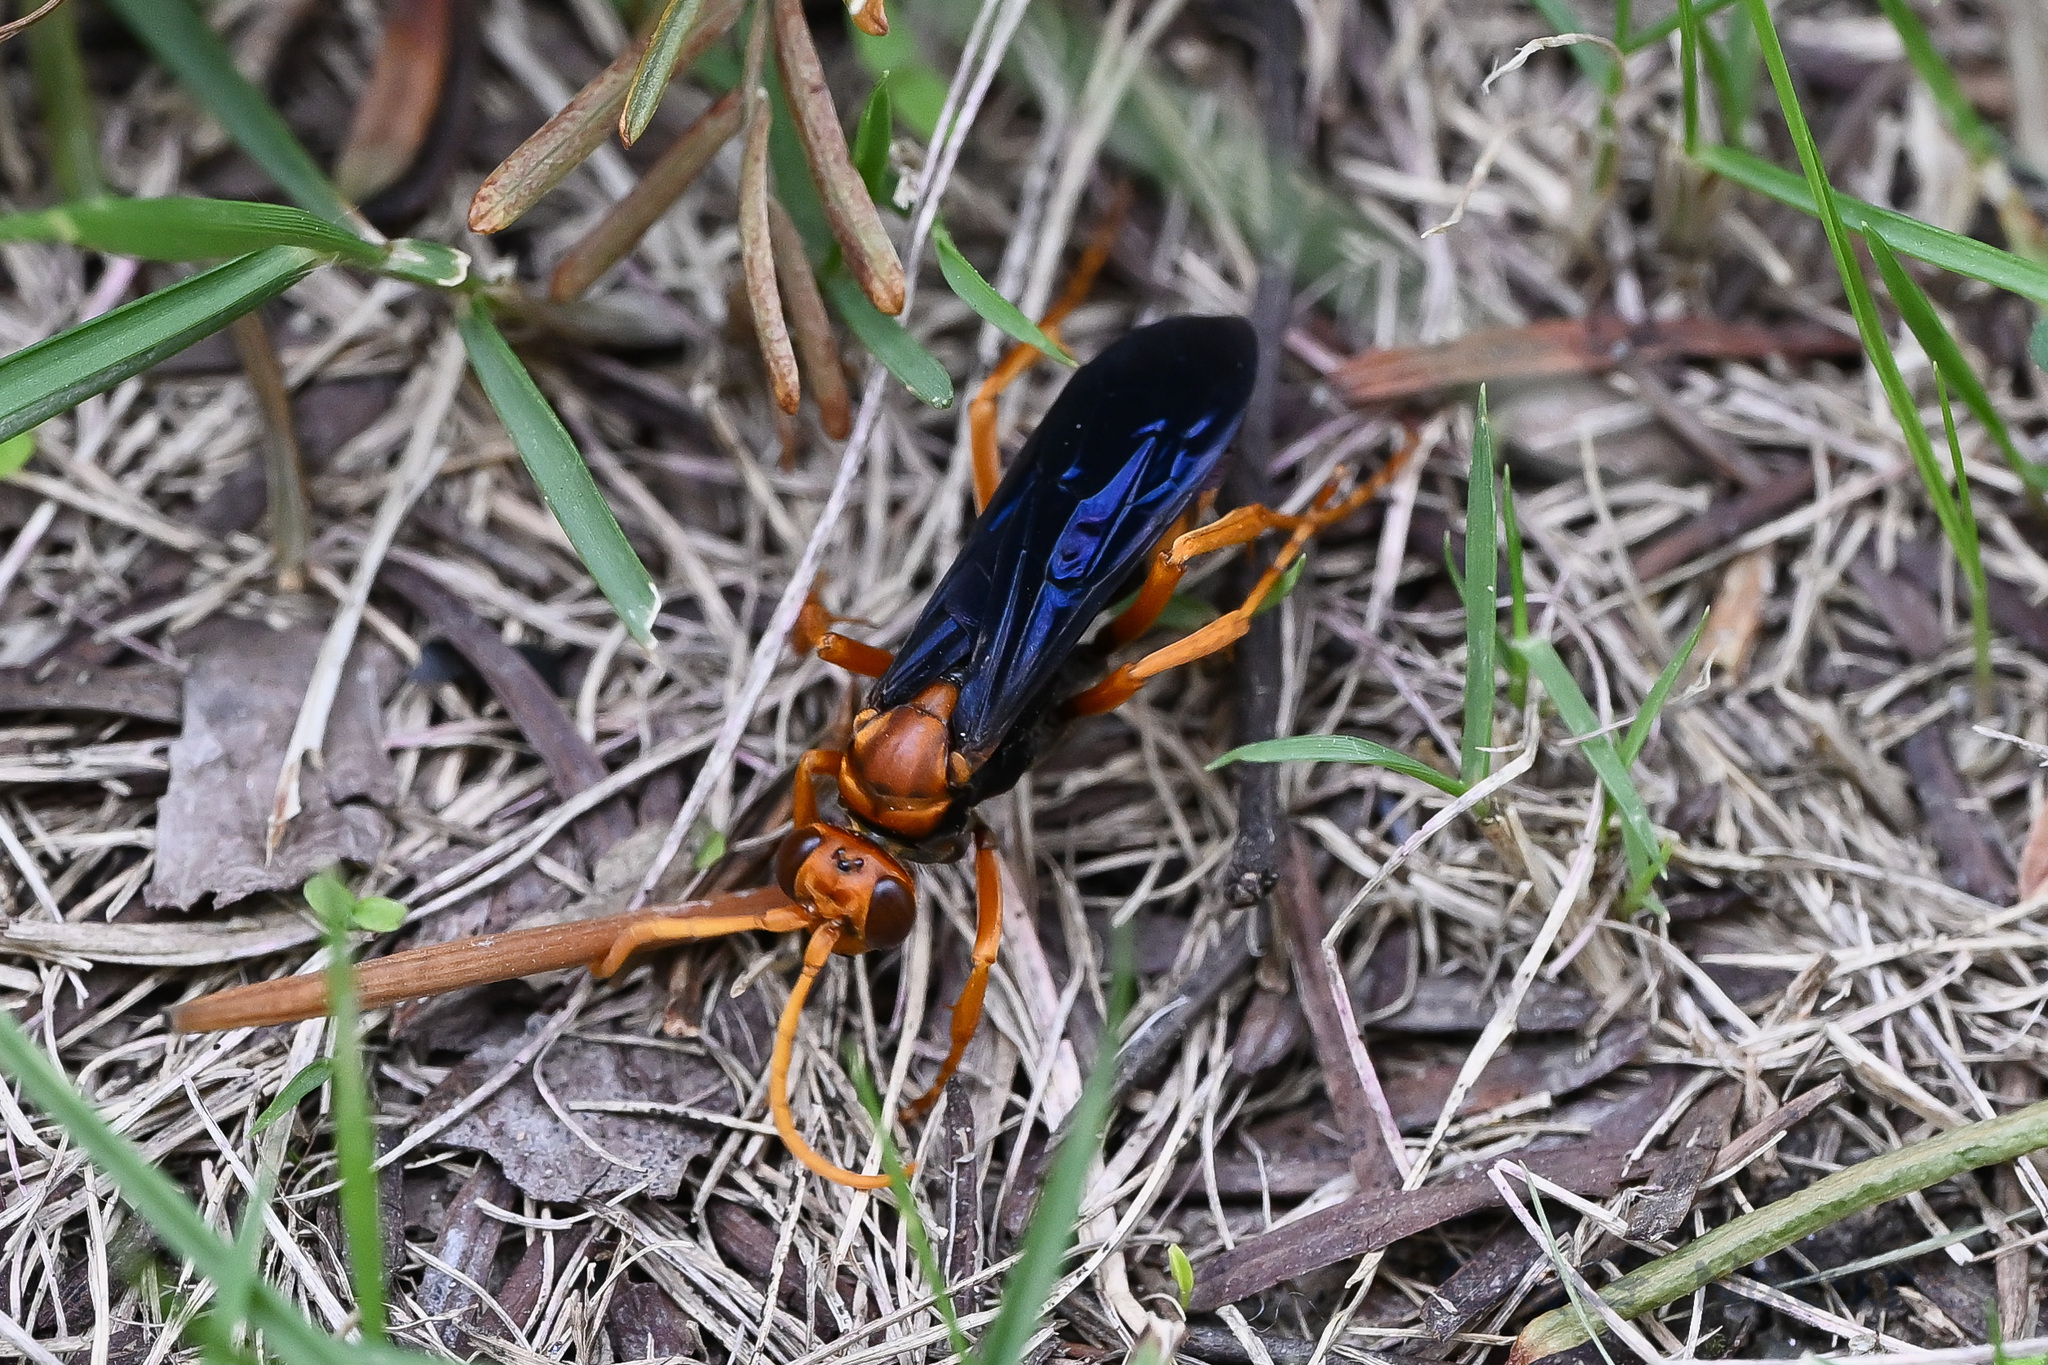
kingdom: Animalia
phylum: Arthropoda
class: Insecta
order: Hymenoptera
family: Pompilidae
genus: Hemipepsis
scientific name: Hemipepsis sogdiana
